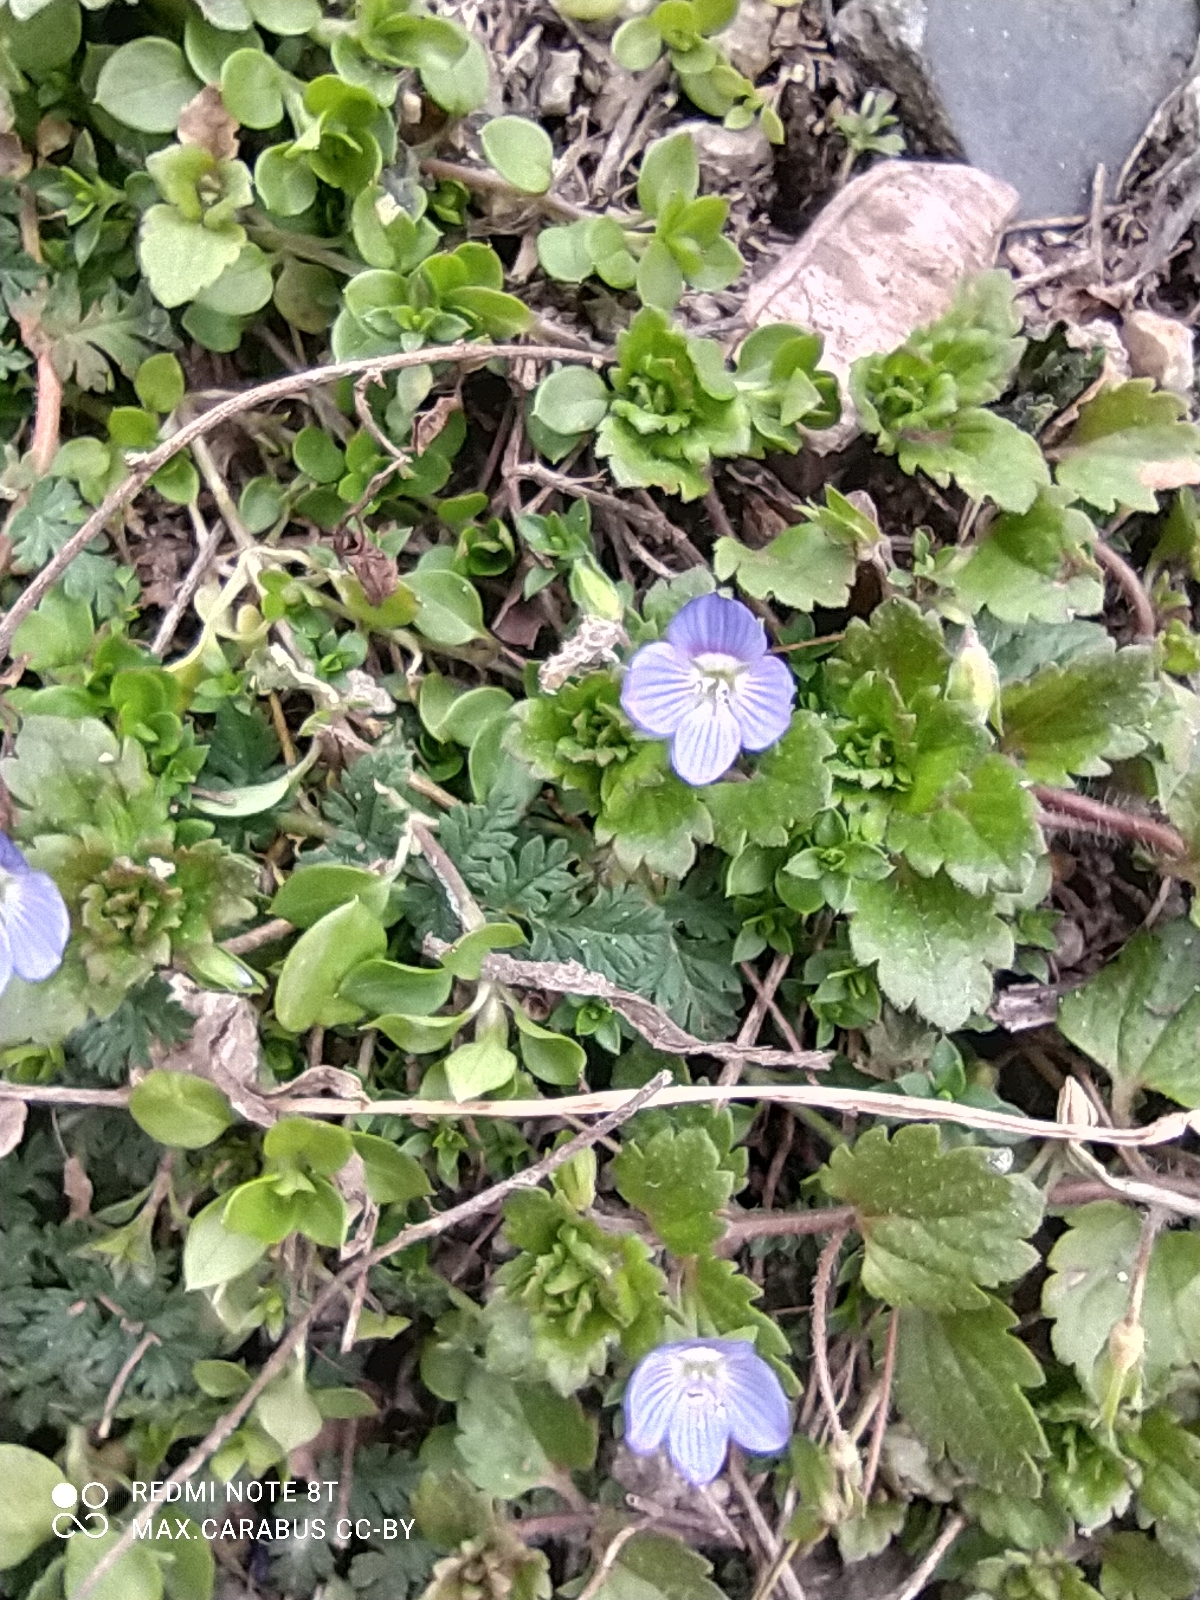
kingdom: Plantae
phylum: Tracheophyta
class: Magnoliopsida
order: Lamiales
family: Plantaginaceae
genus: Veronica
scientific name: Veronica persica
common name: Common field-speedwell
